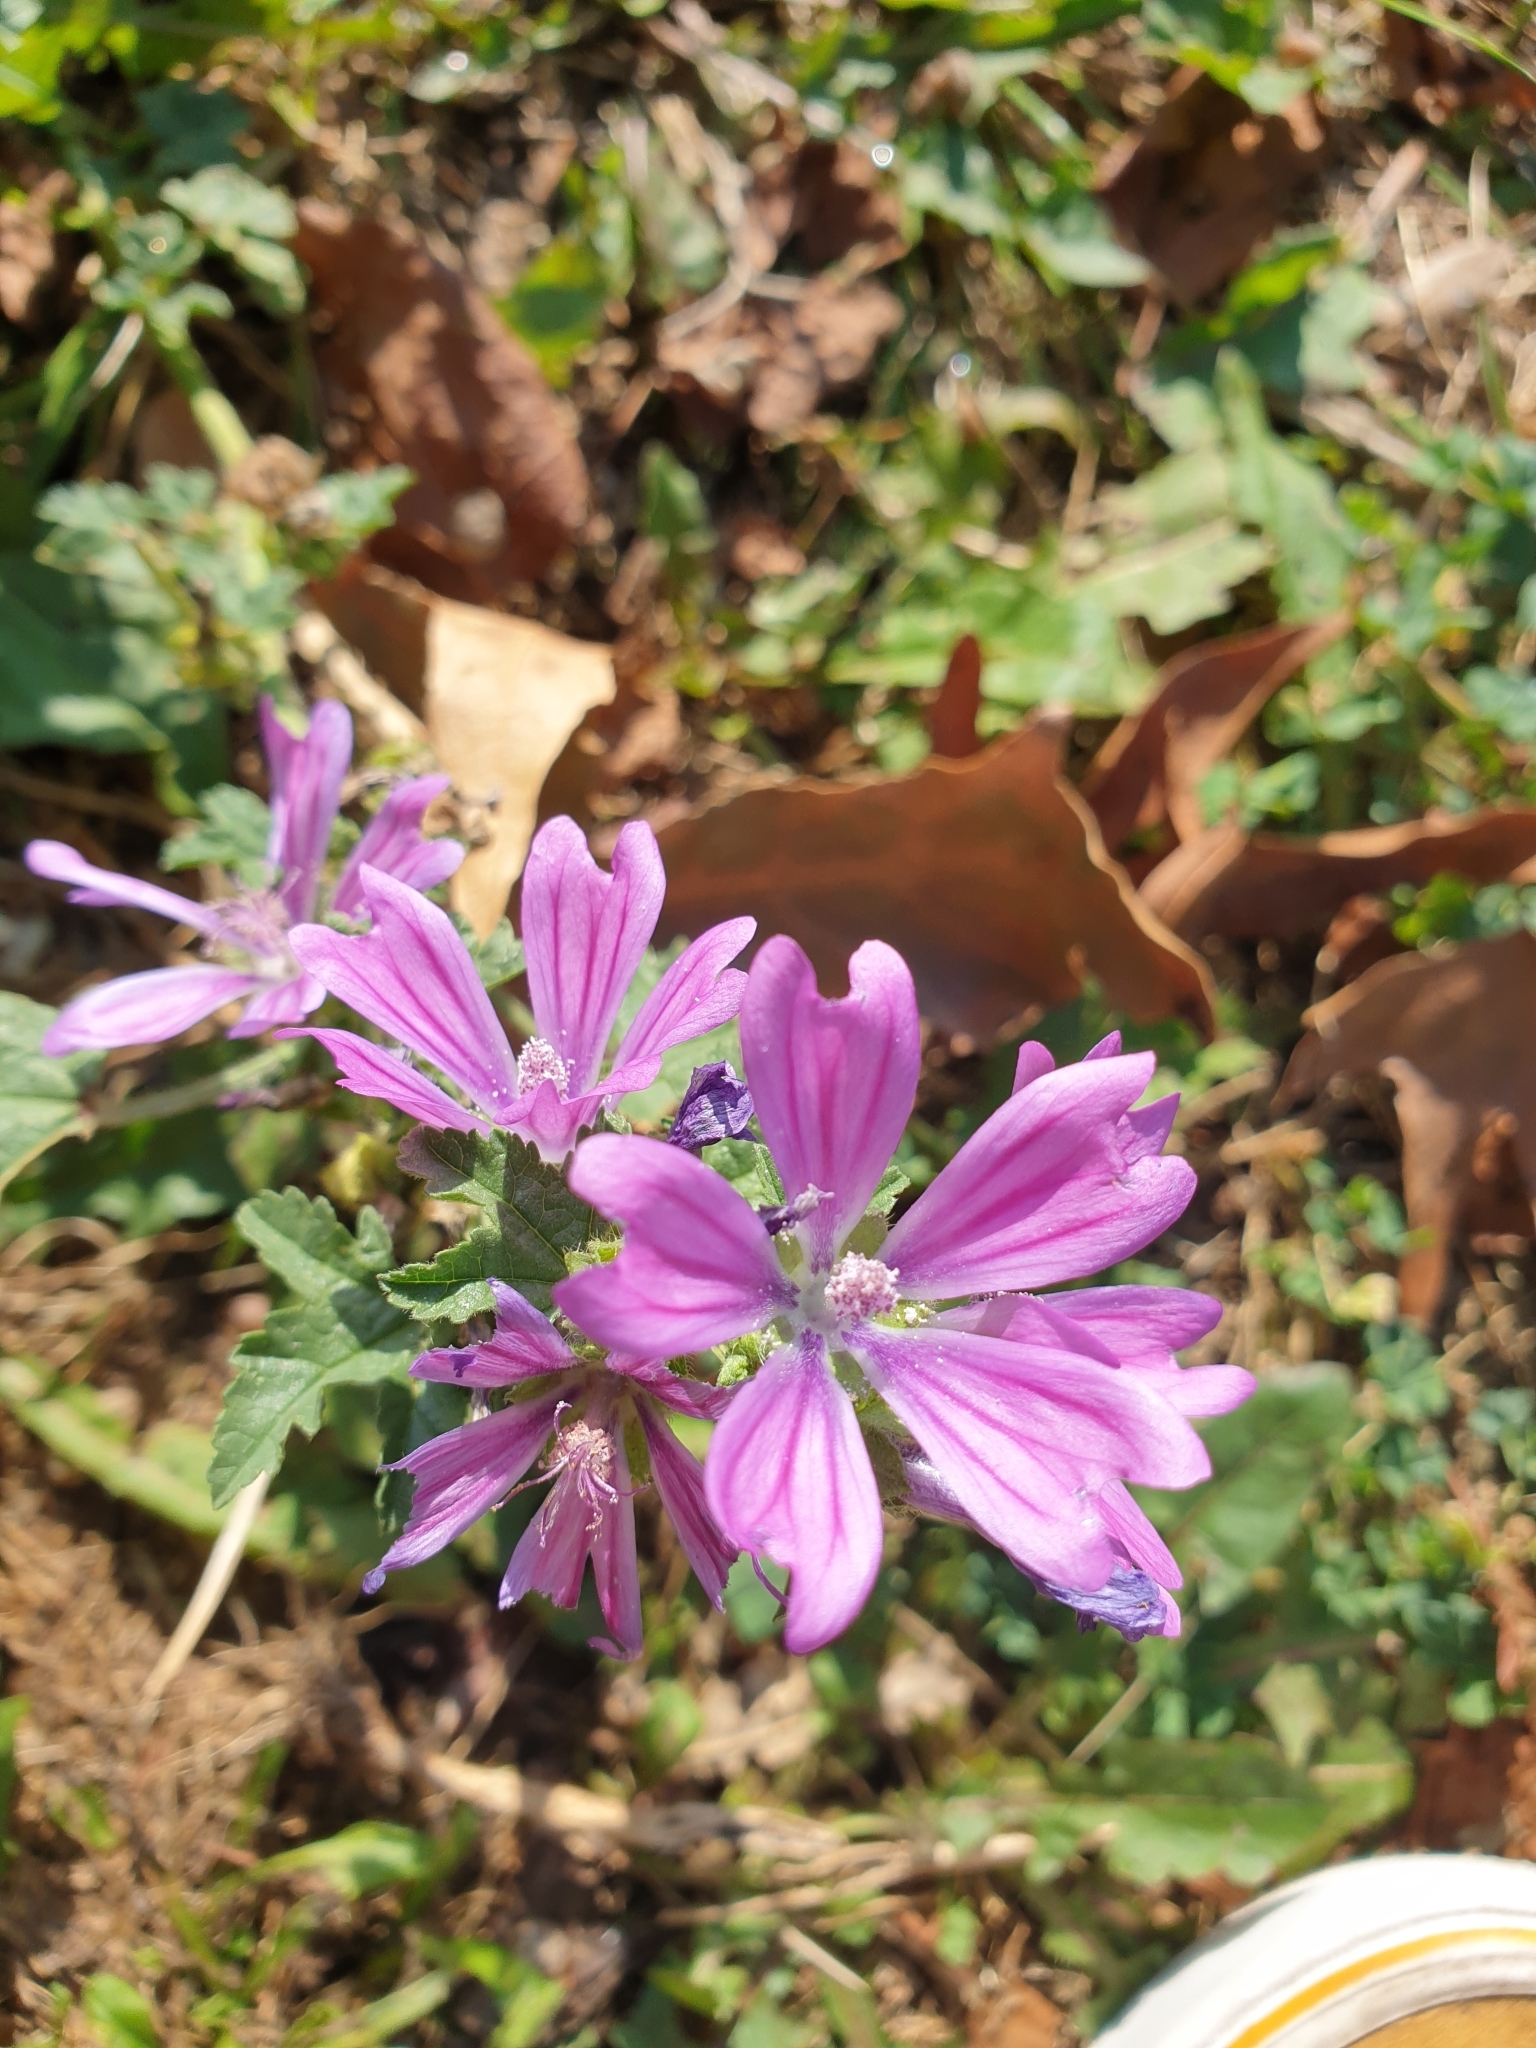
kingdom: Plantae
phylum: Tracheophyta
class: Magnoliopsida
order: Malvales
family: Malvaceae
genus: Malva
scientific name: Malva sylvestris
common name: Common mallow
